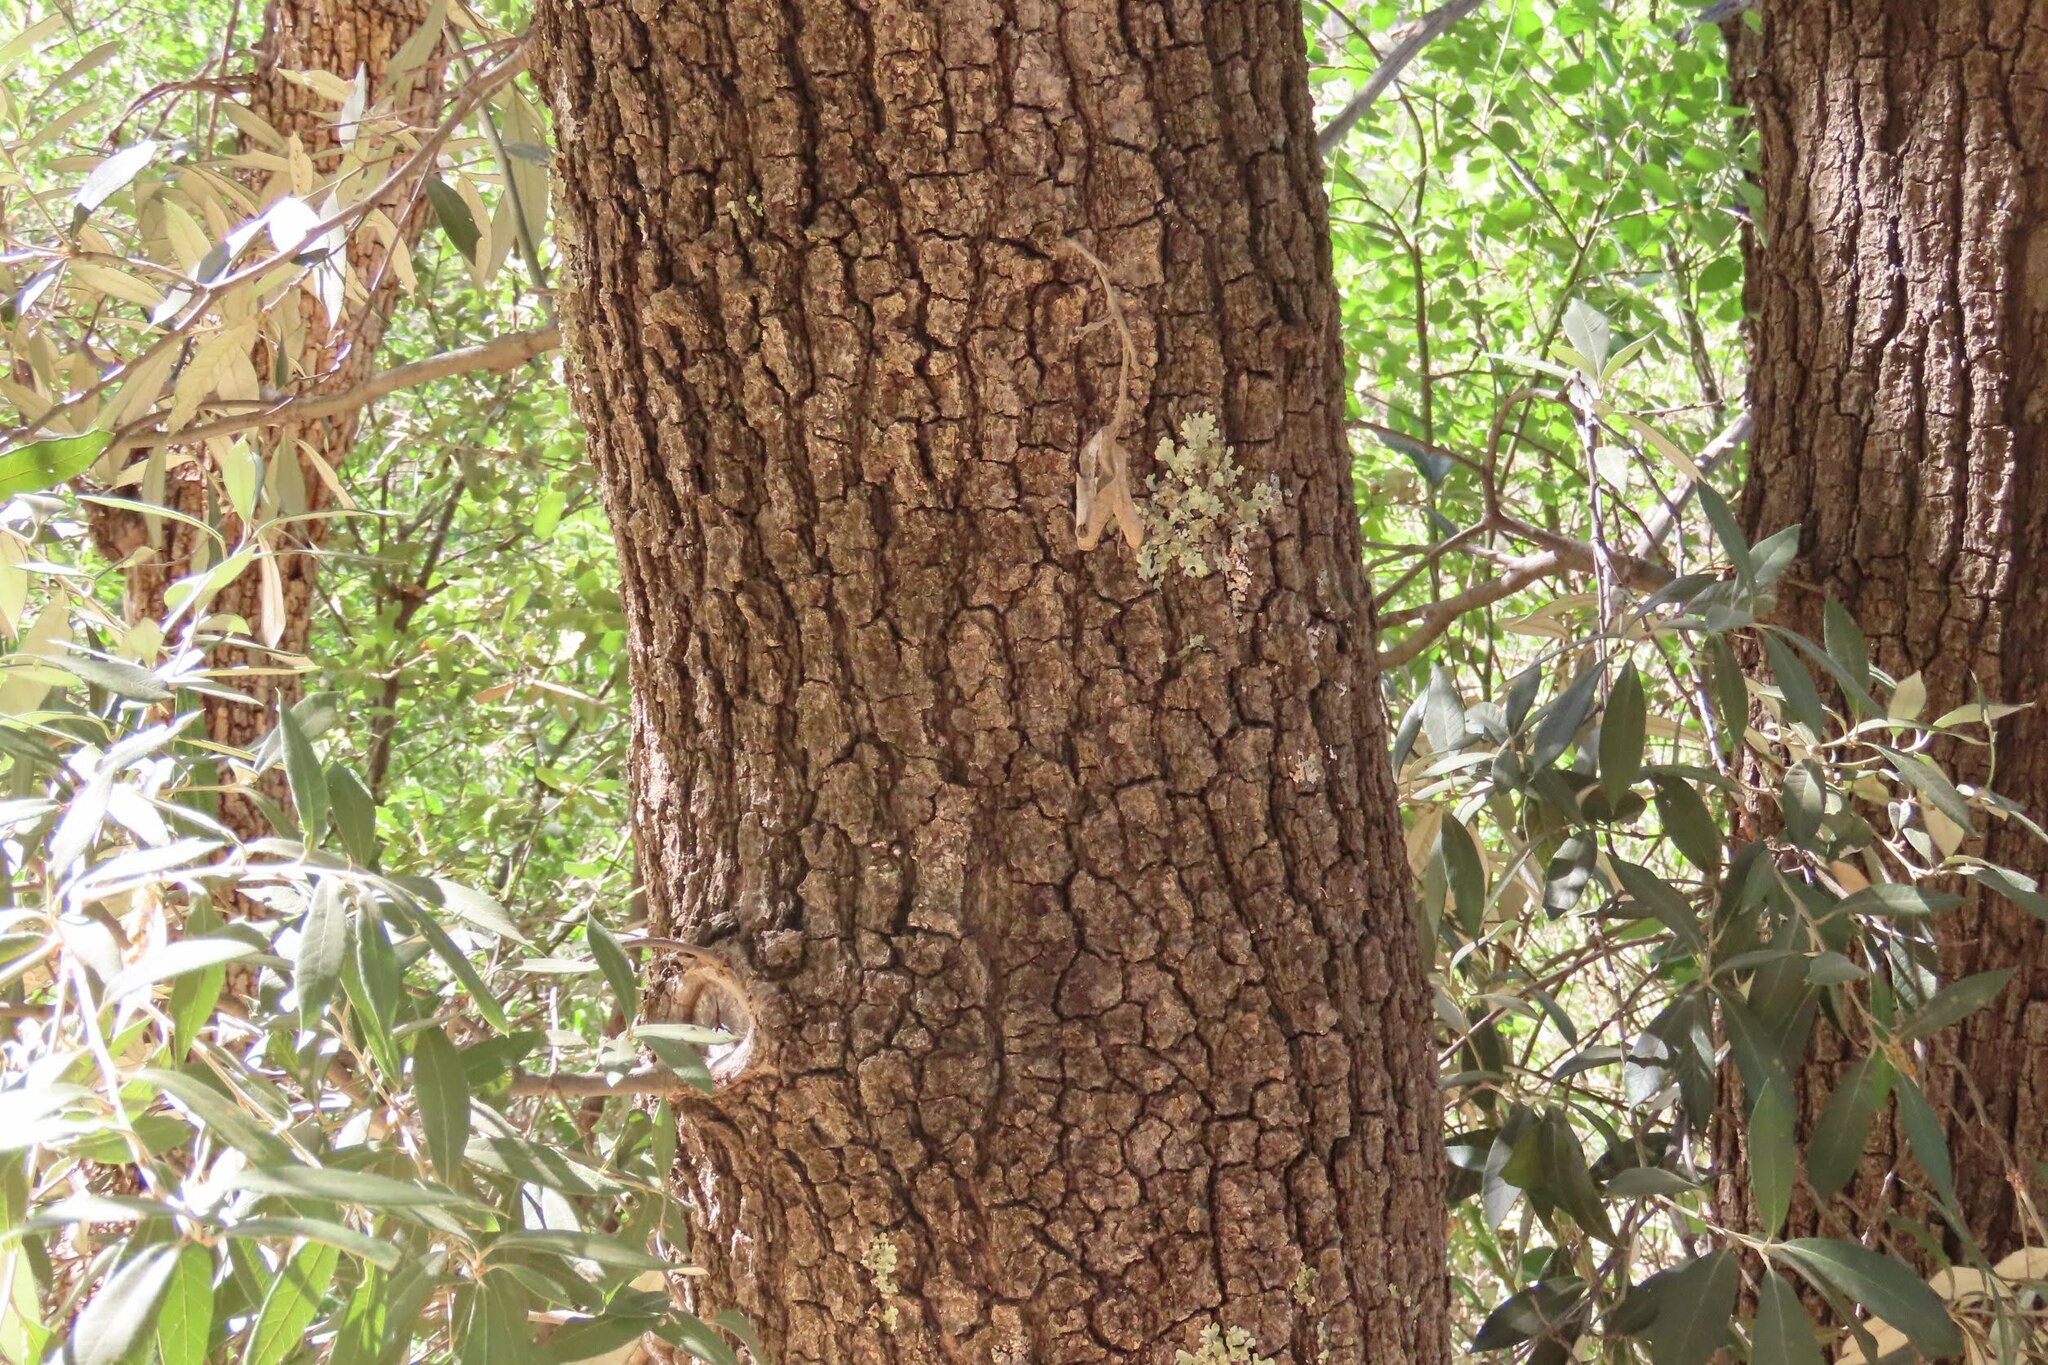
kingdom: Plantae
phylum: Tracheophyta
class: Magnoliopsida
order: Fagales
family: Fagaceae
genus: Quercus
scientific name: Quercus hypoleucoides
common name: Silverleaf oak
